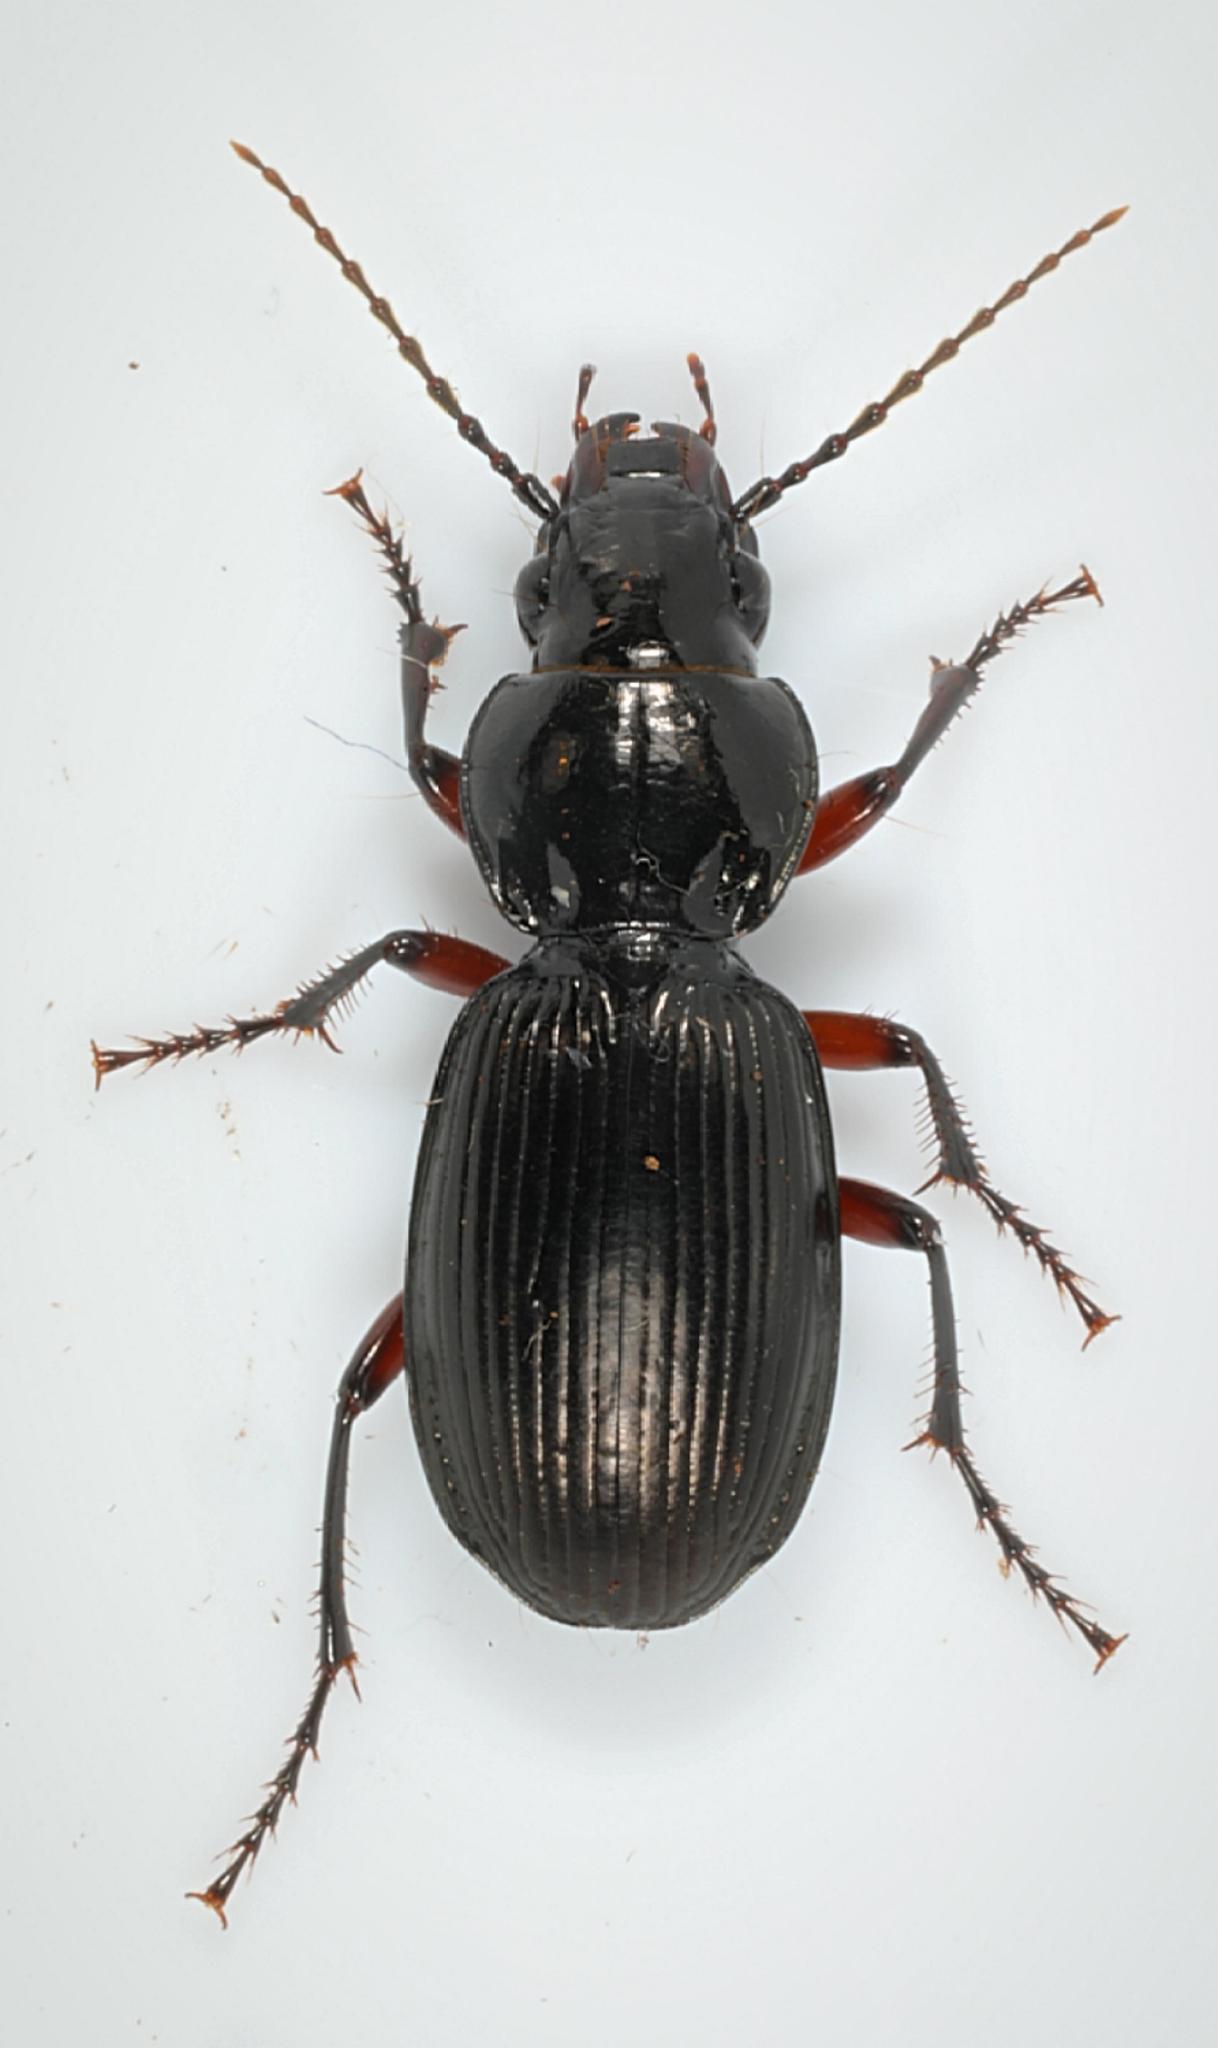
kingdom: Animalia
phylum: Arthropoda
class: Insecta
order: Coleoptera
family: Carabidae
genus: Pterostichus
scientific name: Pterostichus madidus
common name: Black clock
